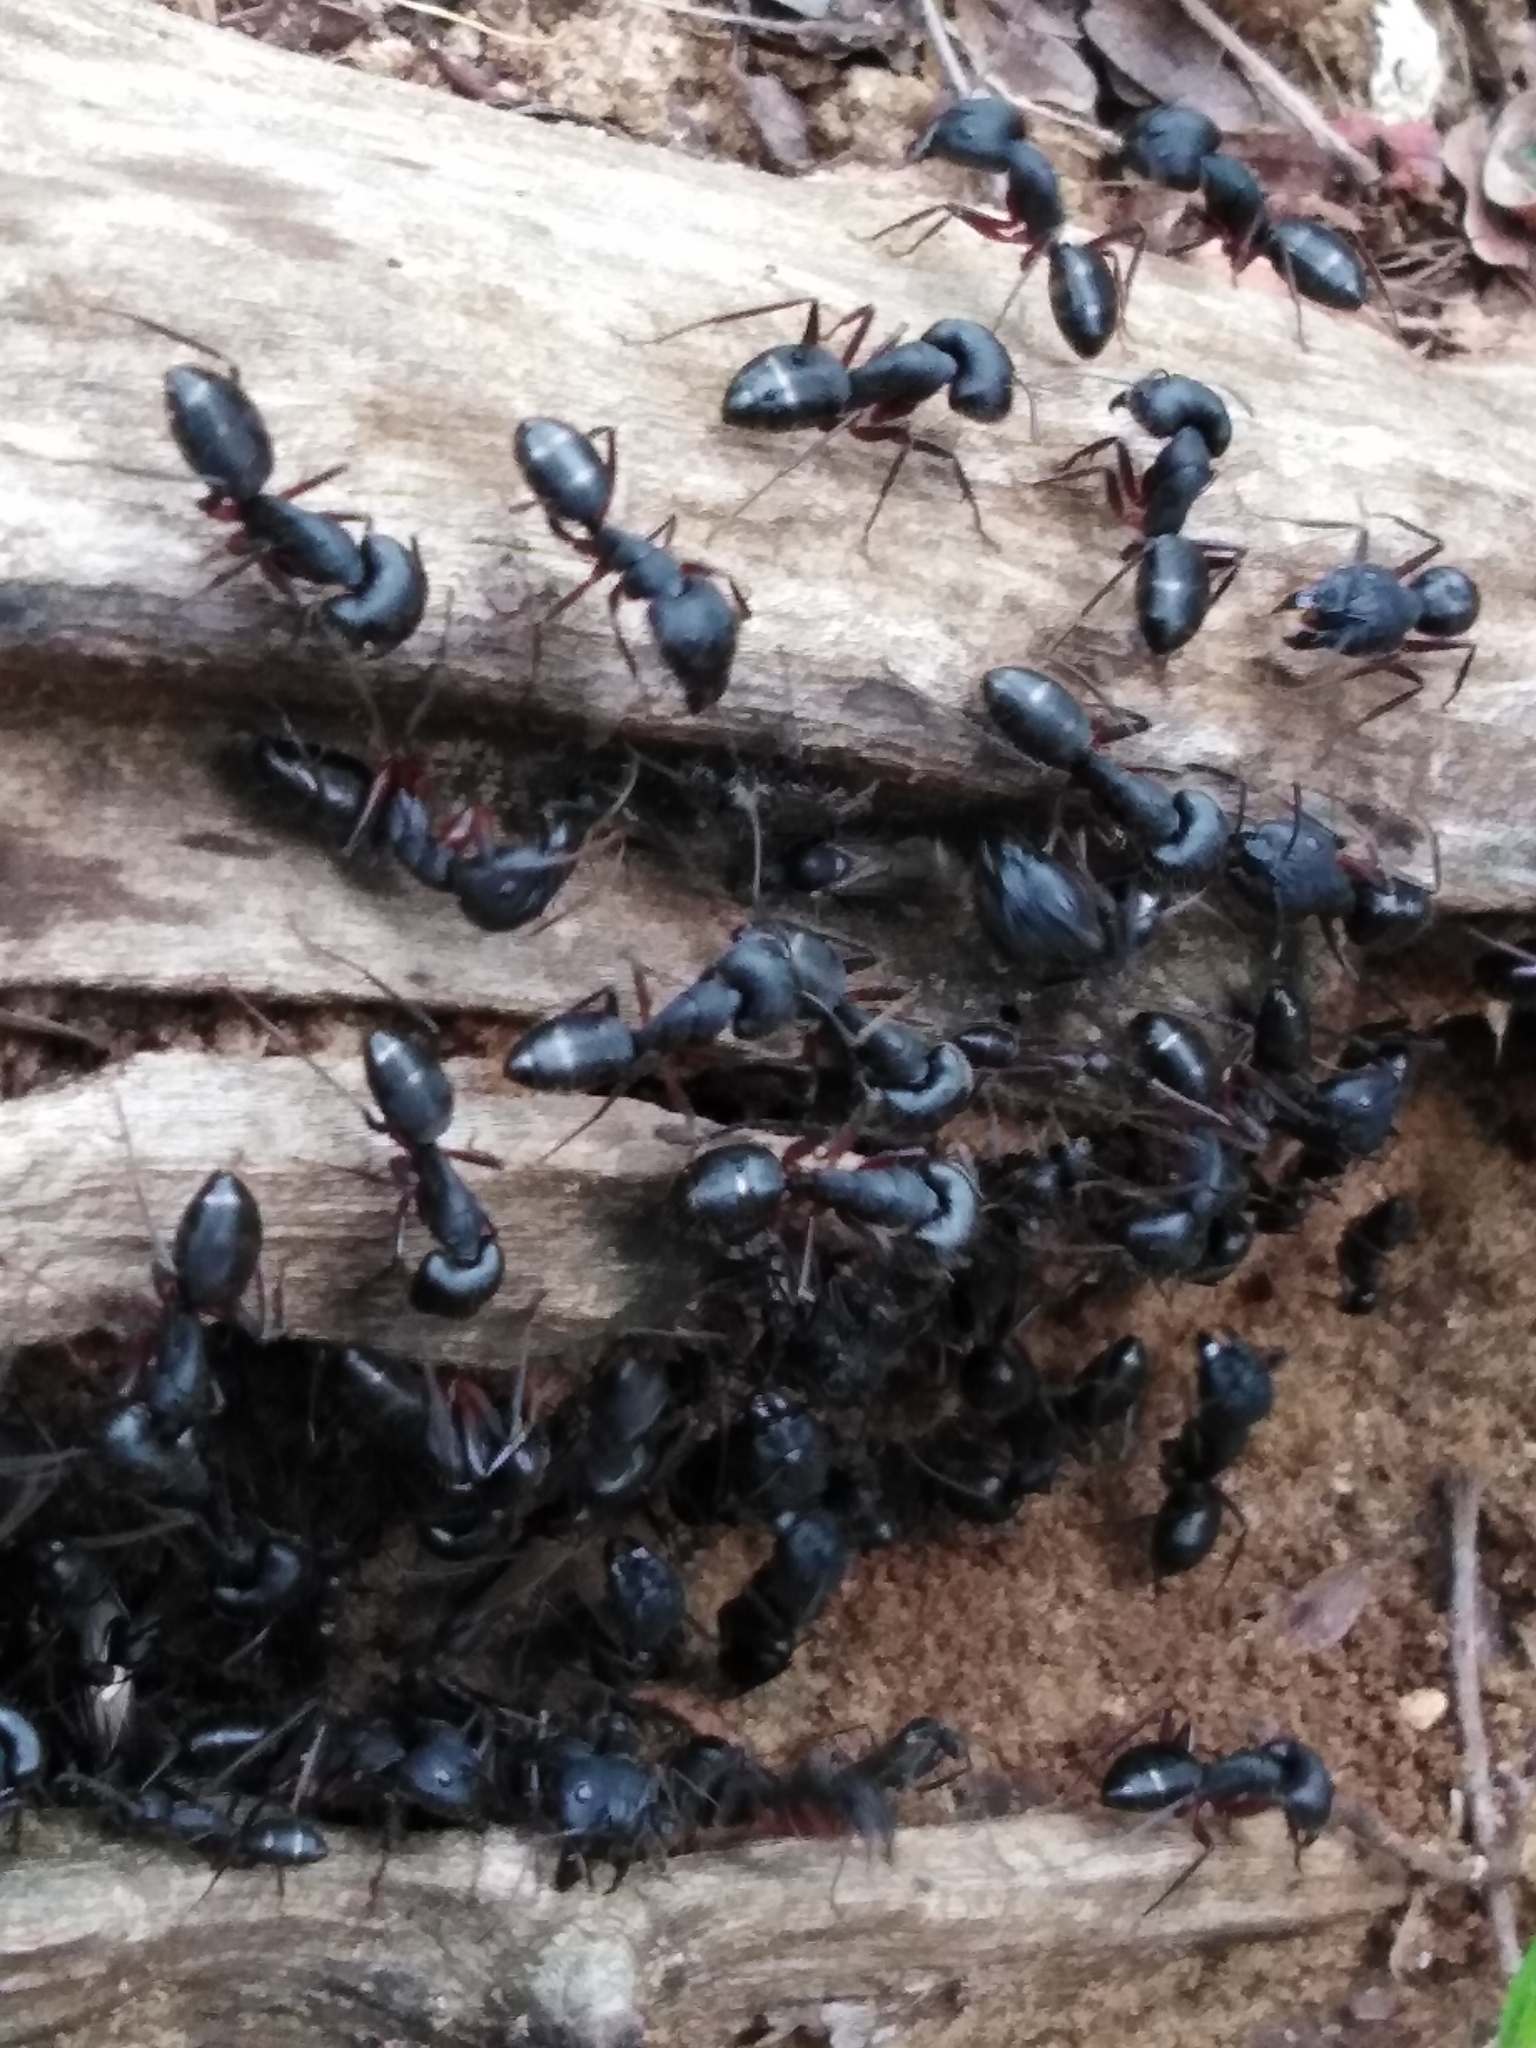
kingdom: Animalia
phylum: Arthropoda
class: Insecta
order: Hymenoptera
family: Formicidae
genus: Camponotus
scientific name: Camponotus compressus
